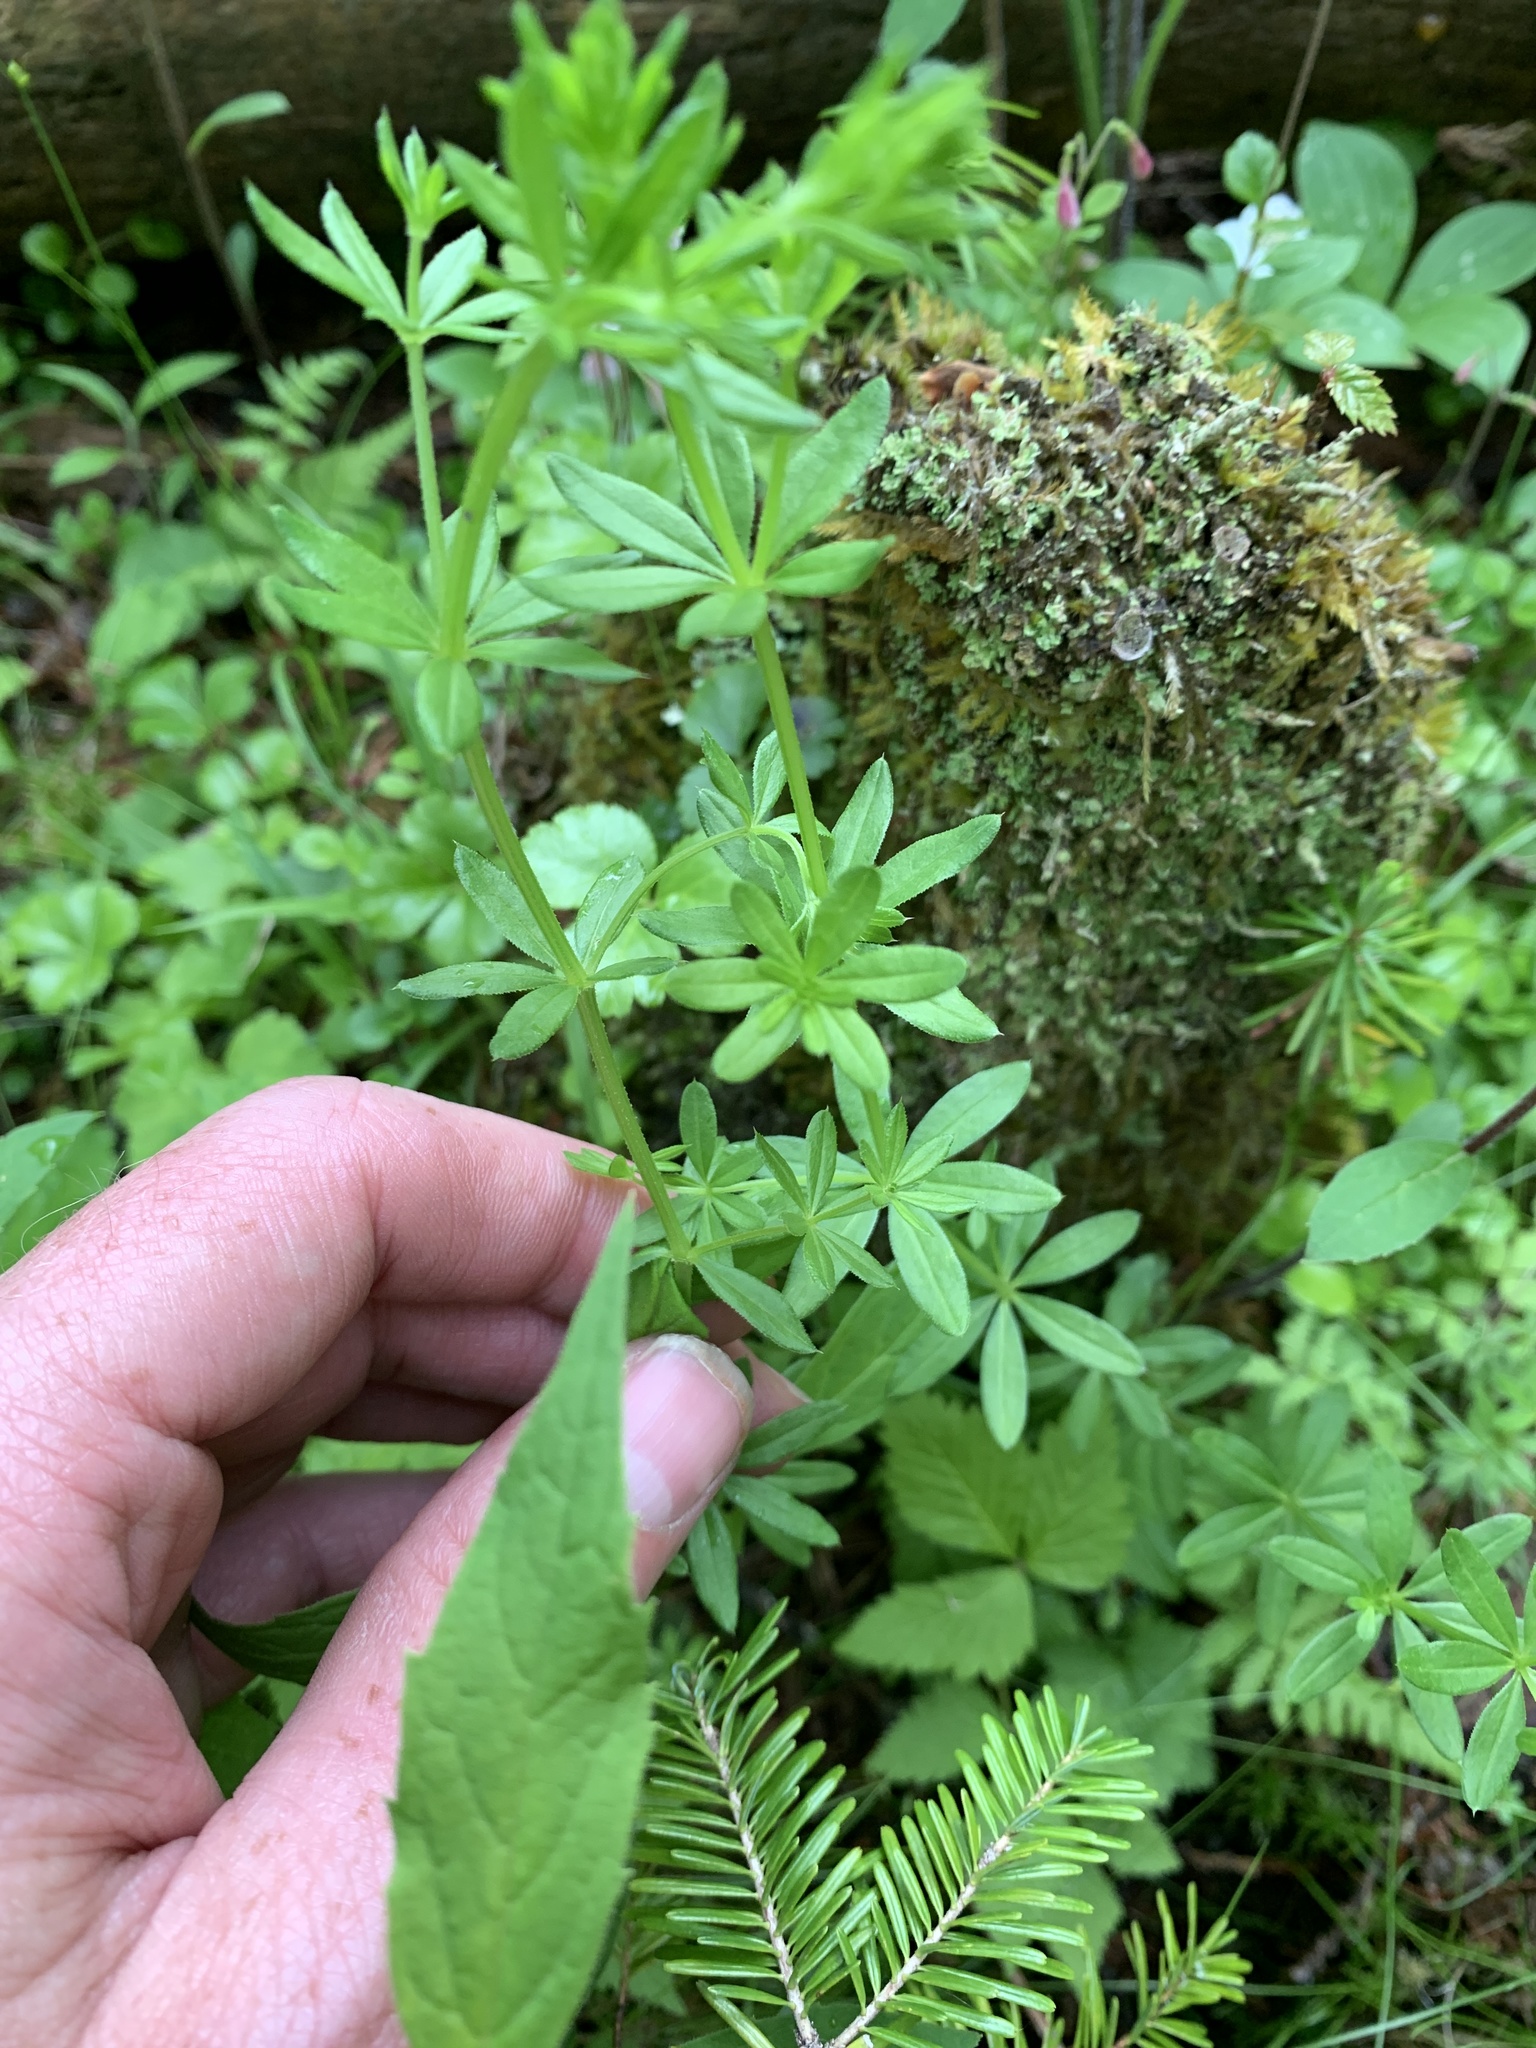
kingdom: Plantae
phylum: Tracheophyta
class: Magnoliopsida
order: Gentianales
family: Rubiaceae
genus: Galium
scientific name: Galium asprellum
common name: Rough bedstraw
